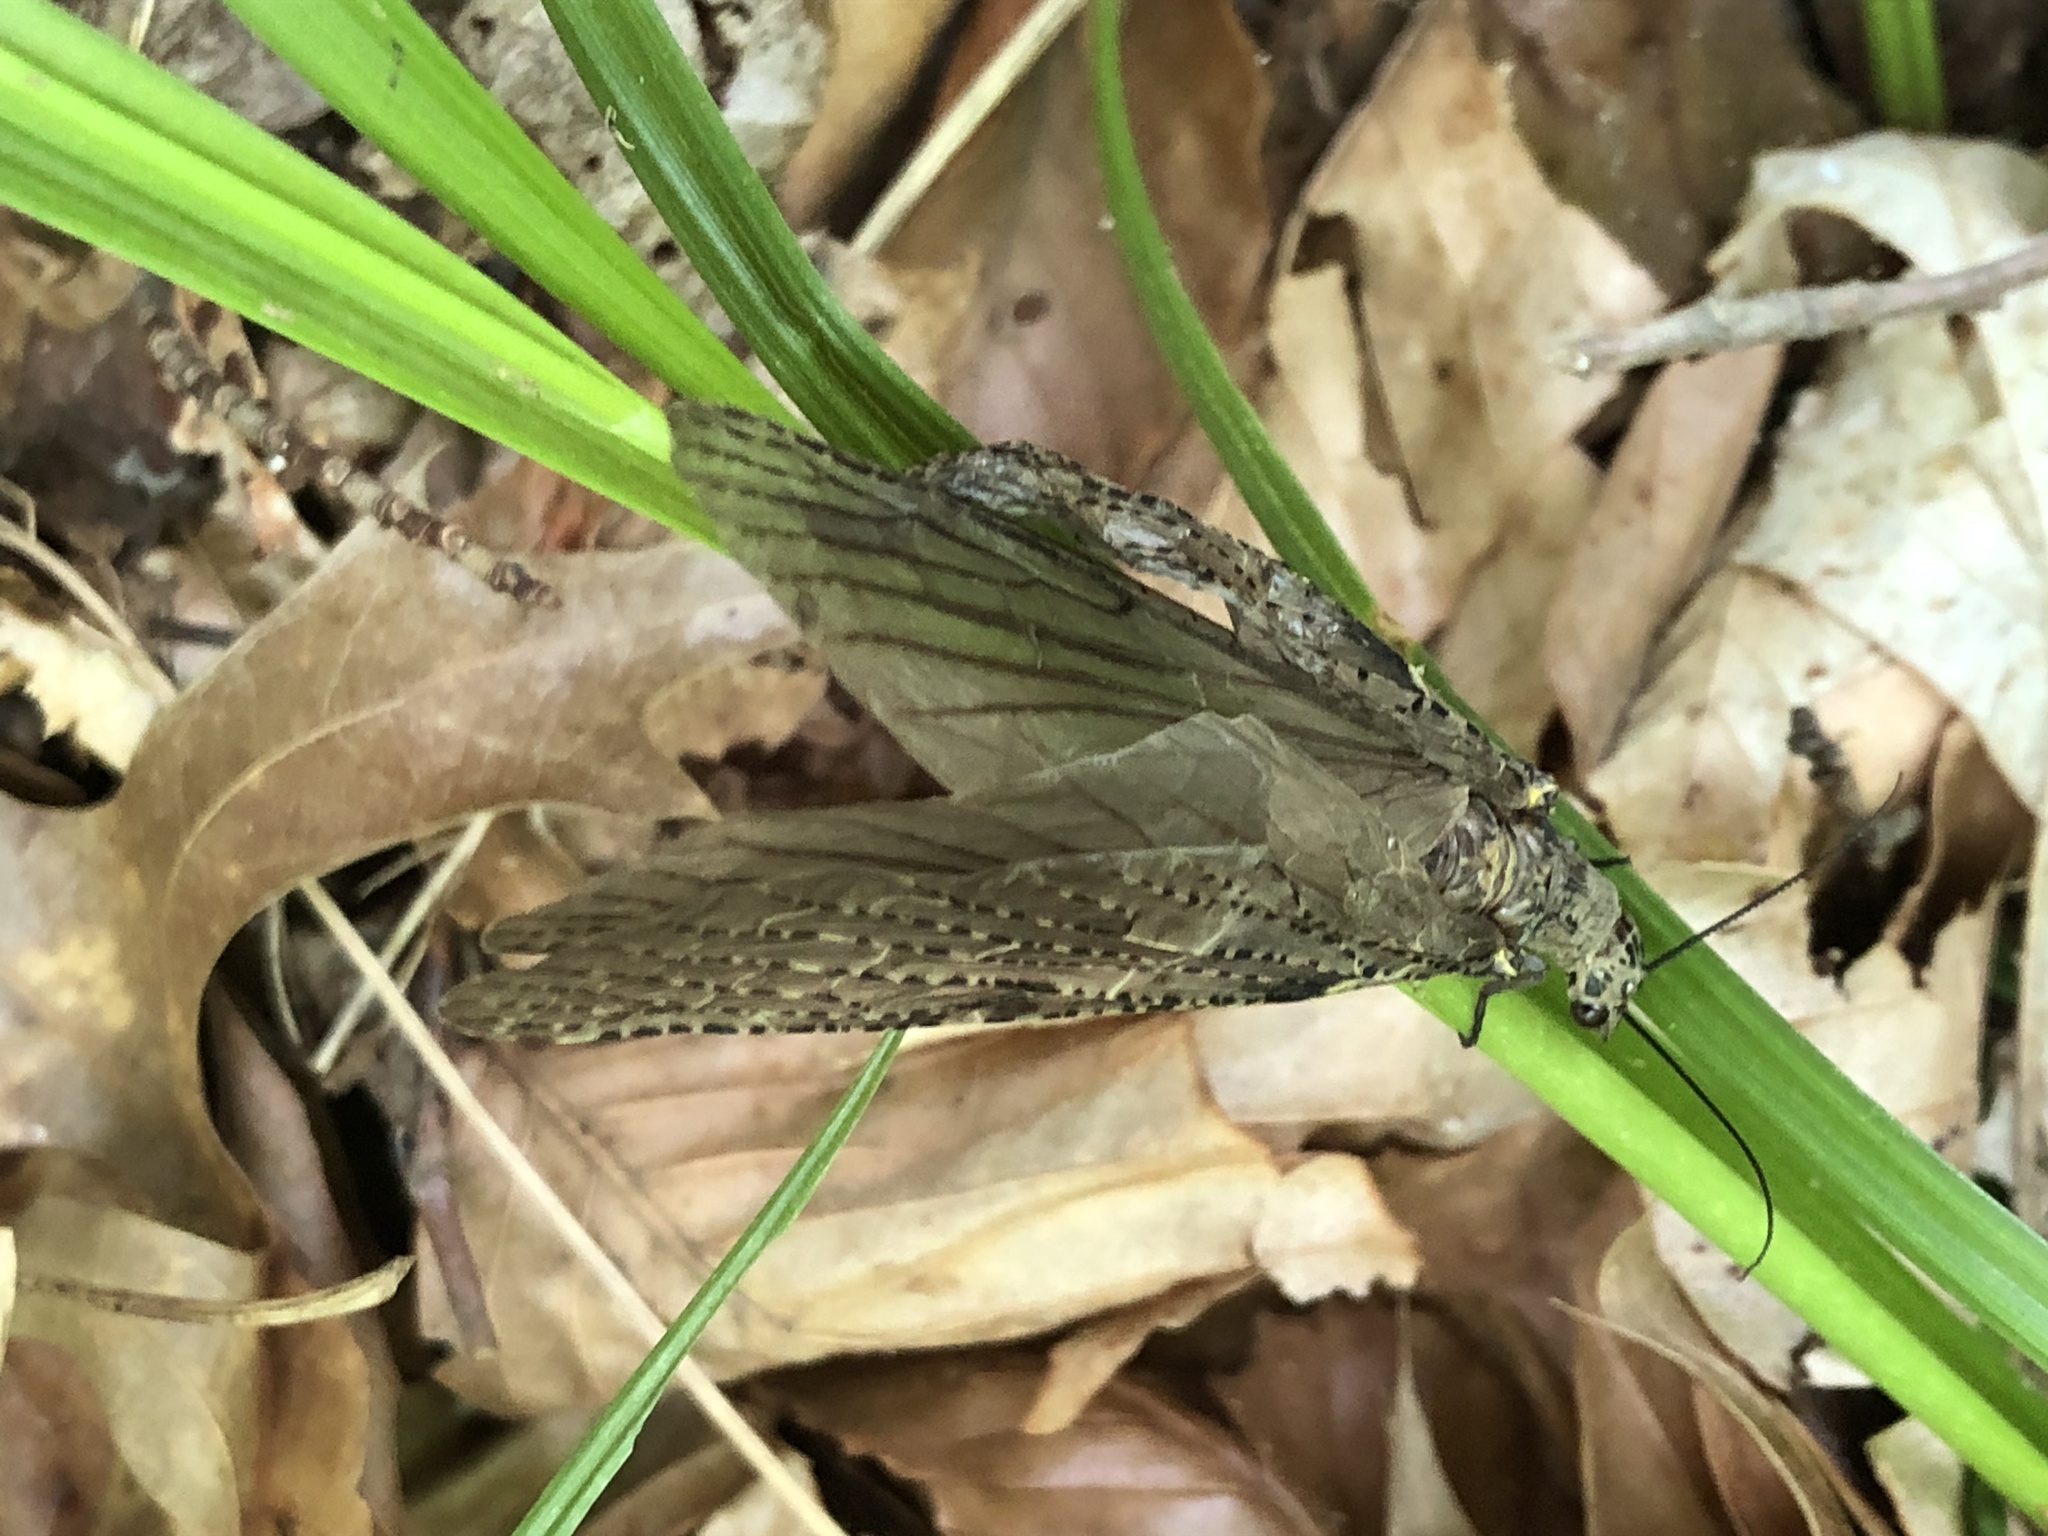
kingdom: Animalia
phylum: Arthropoda
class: Insecta
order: Megaloptera
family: Corydalidae
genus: Chauliodes
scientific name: Chauliodes rastricornis
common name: Spring fishfly
